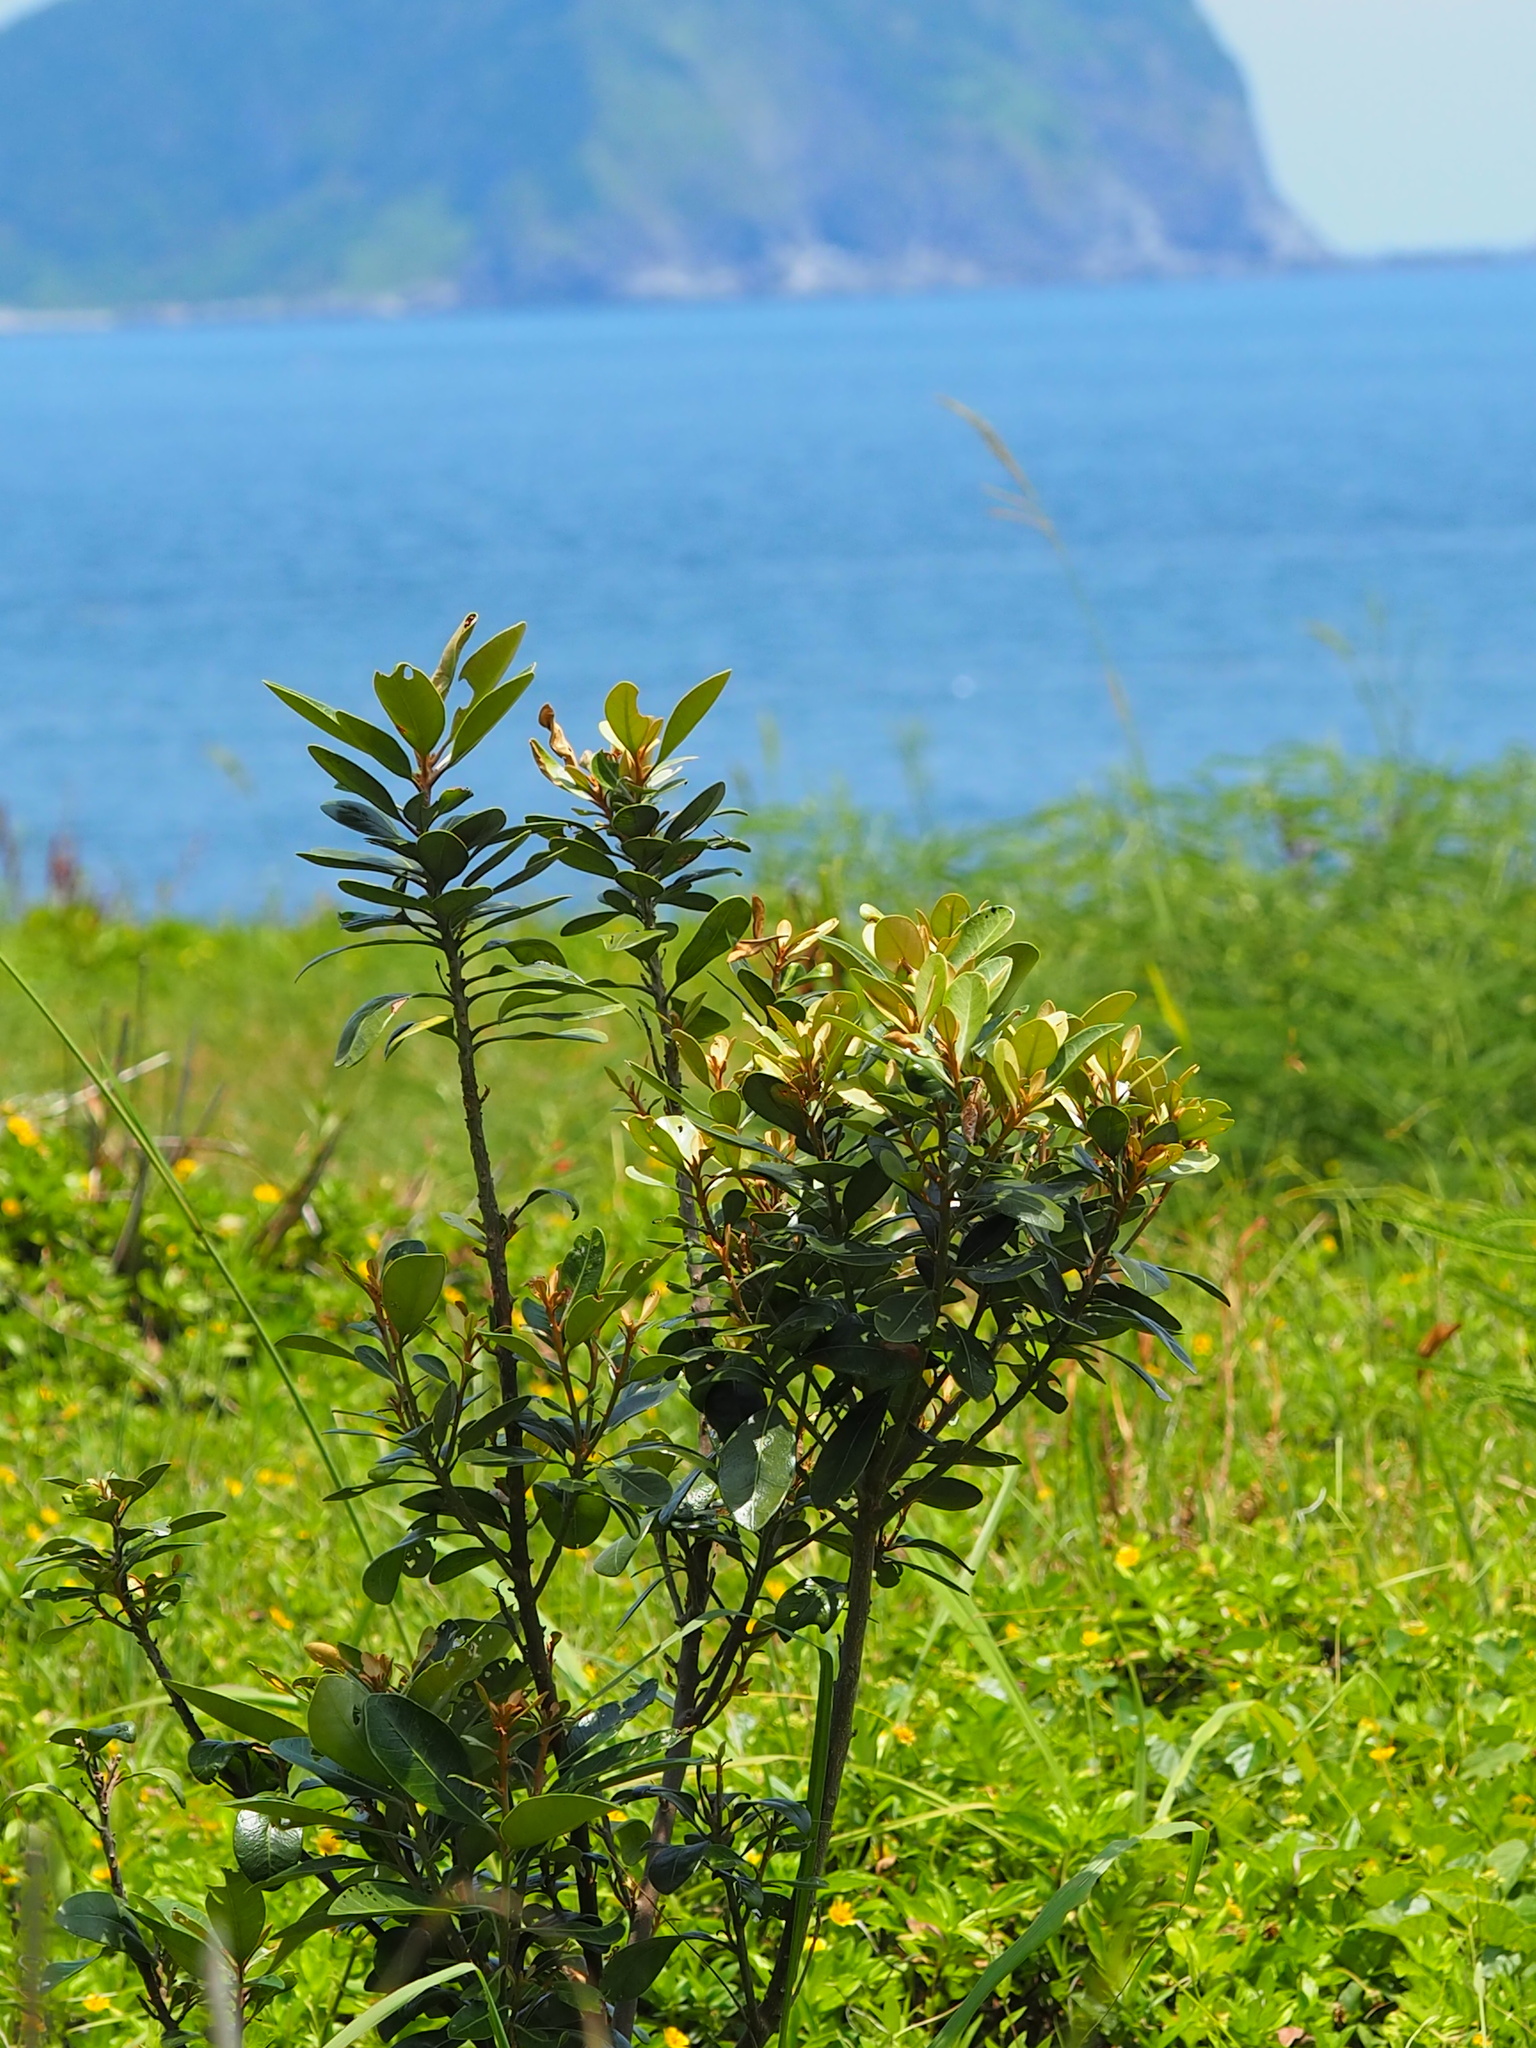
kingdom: Plantae
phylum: Tracheophyta
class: Magnoliopsida
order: Ericales
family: Sapotaceae
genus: Planchonella
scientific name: Planchonella obovata
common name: Black-ash
